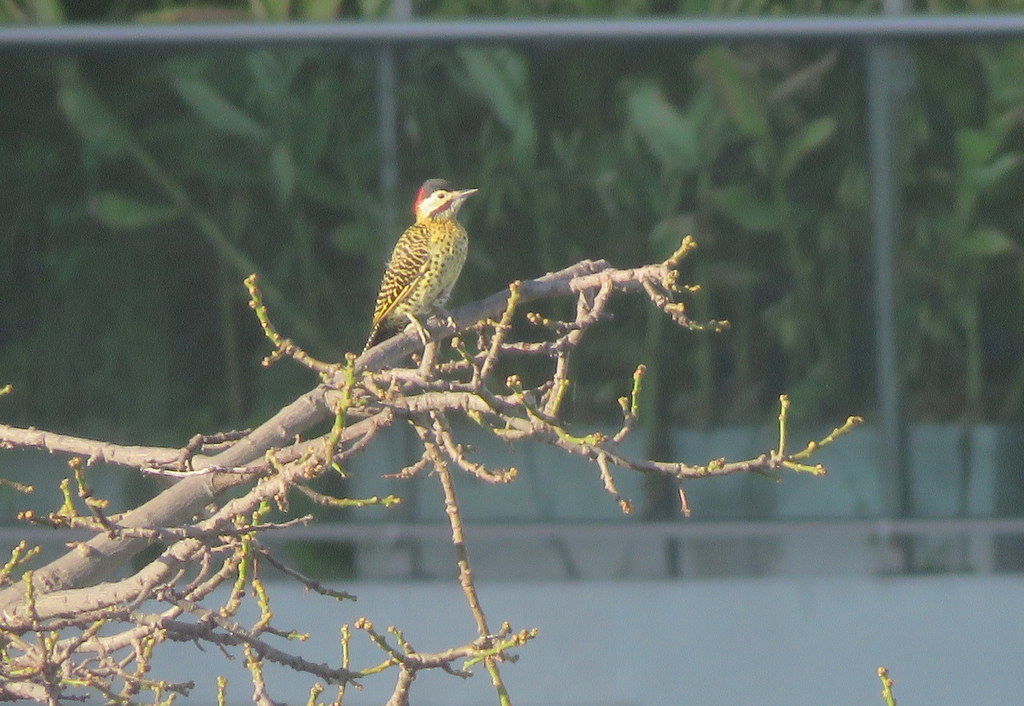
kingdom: Animalia
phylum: Chordata
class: Aves
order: Piciformes
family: Picidae
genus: Colaptes
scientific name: Colaptes melanochloros
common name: Green-barred woodpecker
